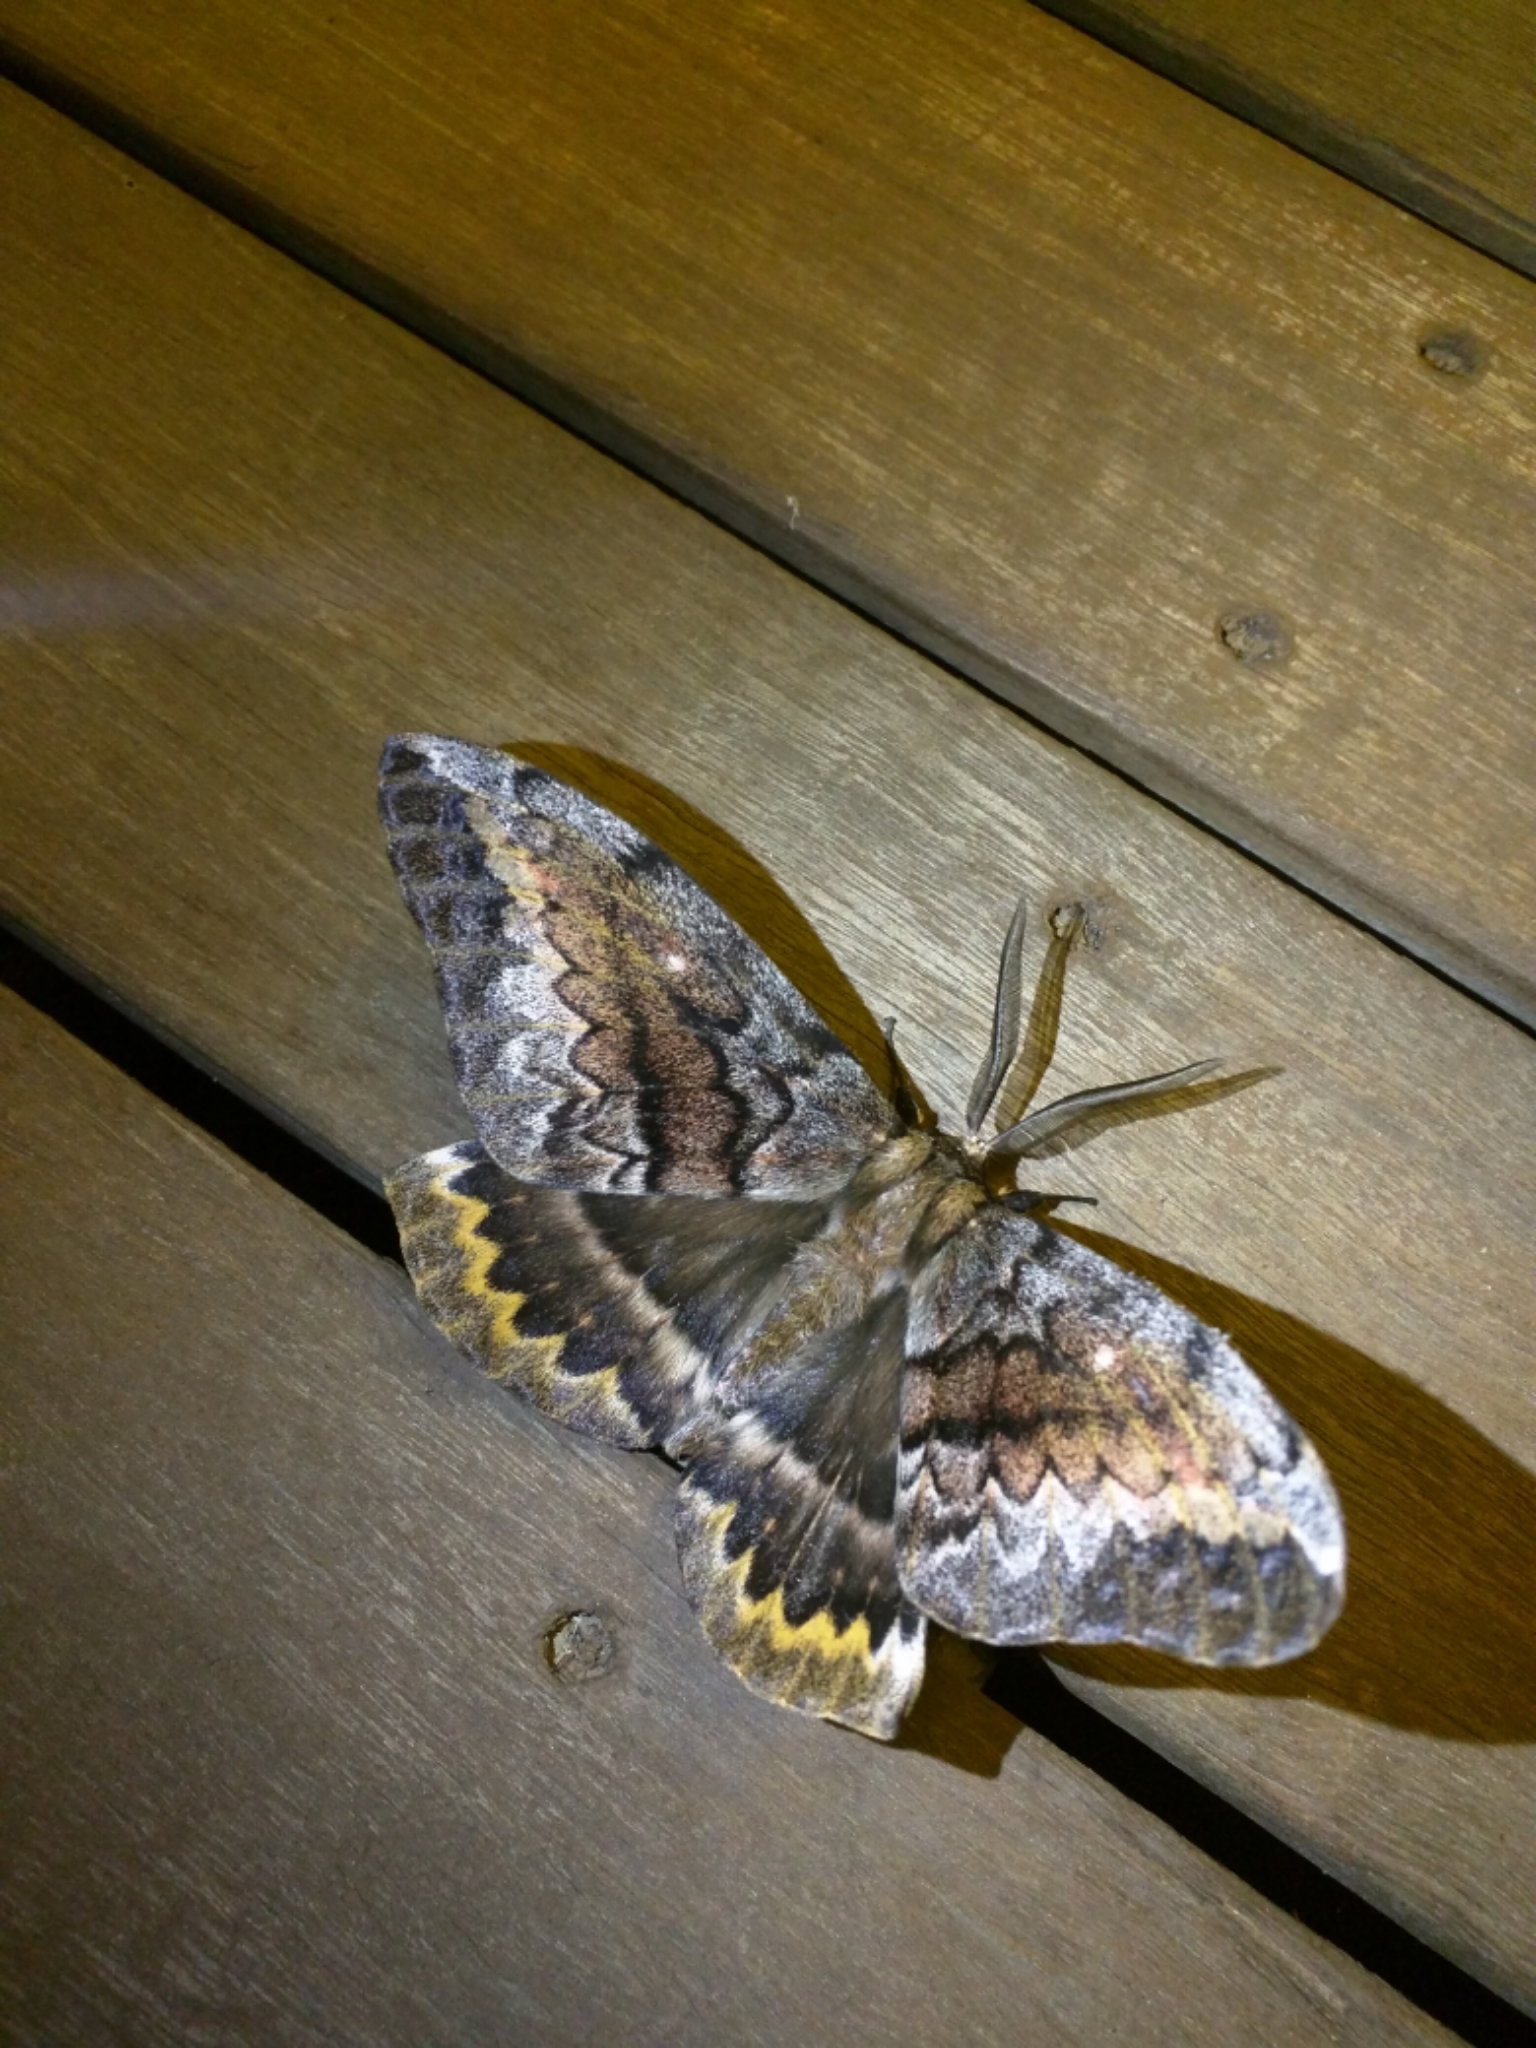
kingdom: Animalia
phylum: Arthropoda
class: Insecta
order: Lepidoptera
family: Anthelidae
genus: Chelepteryx
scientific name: Chelepteryx collesi
